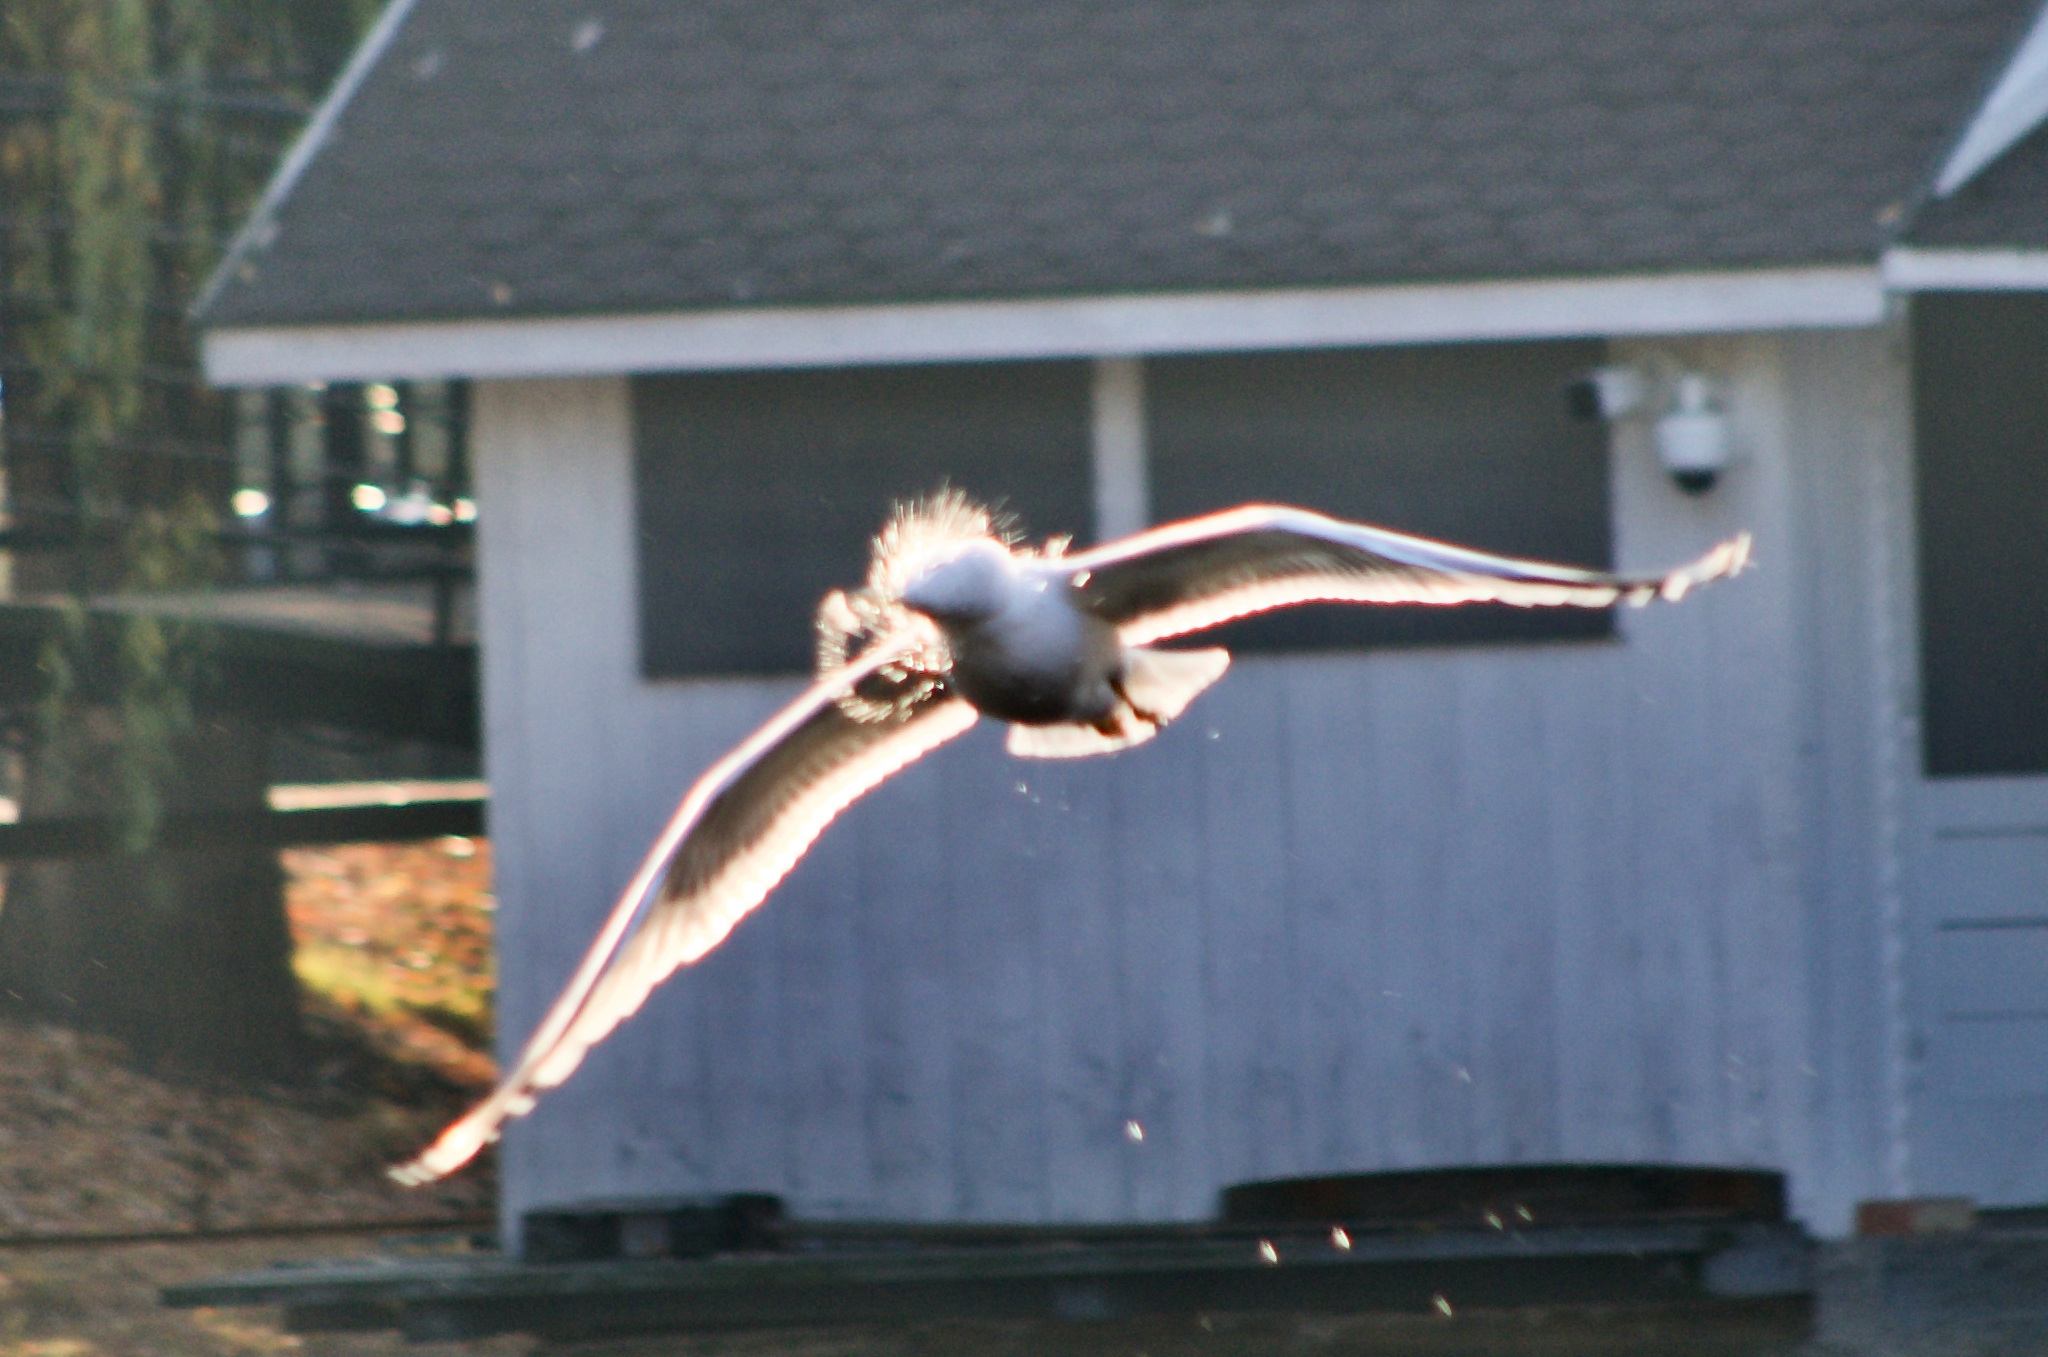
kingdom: Animalia
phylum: Chordata
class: Aves
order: Charadriiformes
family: Laridae
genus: Larus
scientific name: Larus michahellis
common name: Yellow-legged gull
